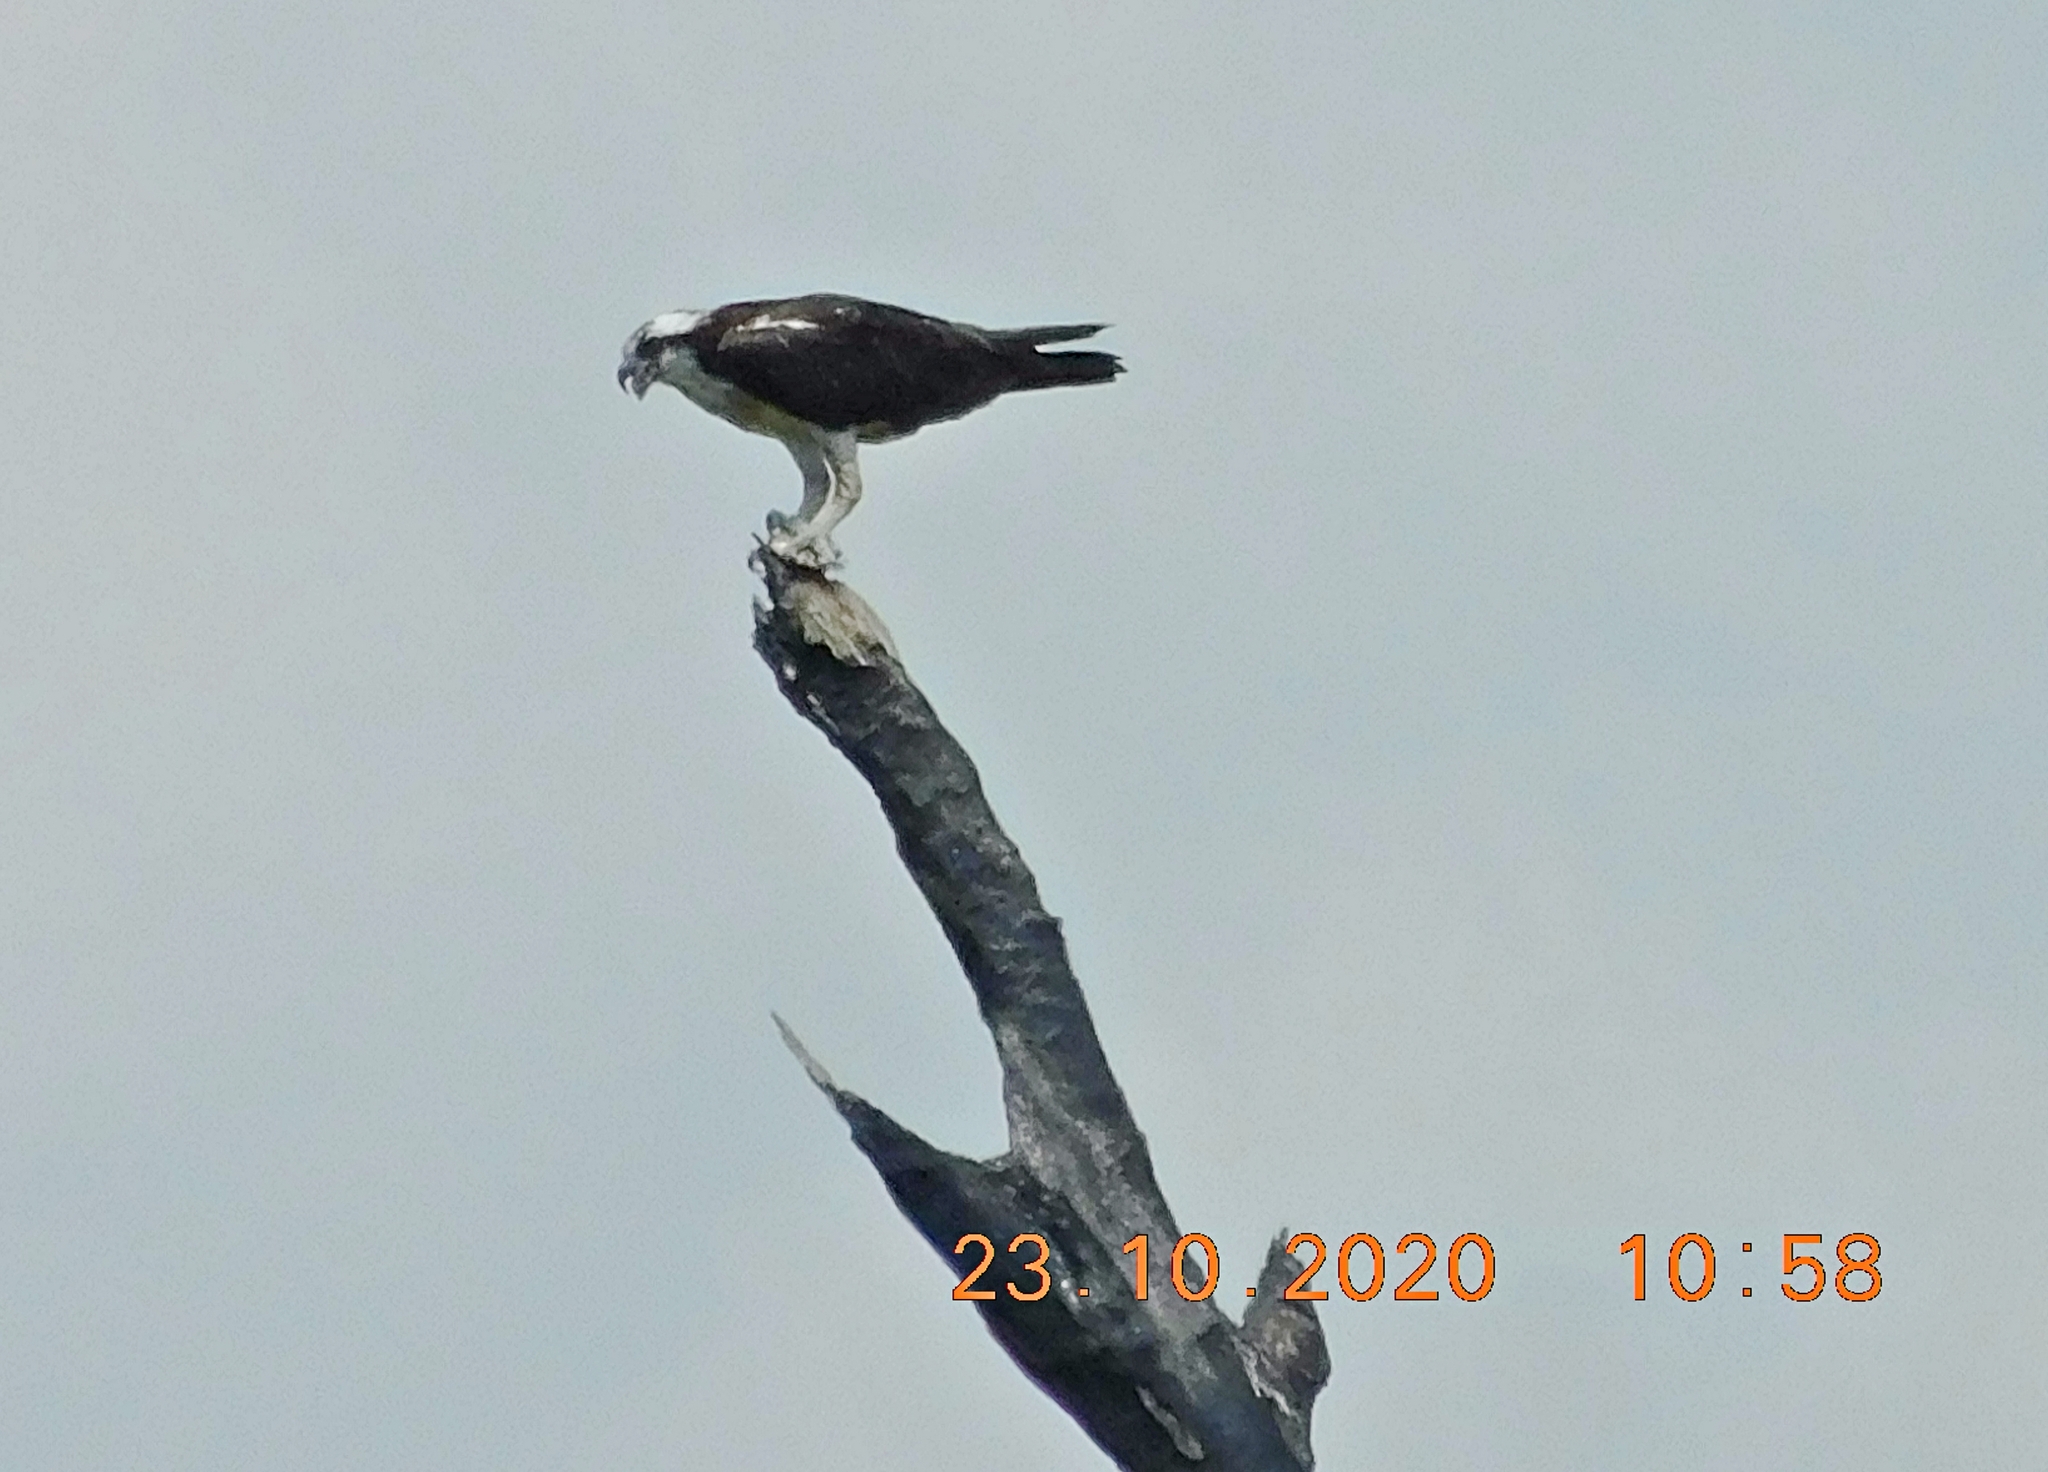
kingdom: Animalia
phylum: Chordata
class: Aves
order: Accipitriformes
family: Pandionidae
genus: Pandion
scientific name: Pandion haliaetus
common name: Osprey
